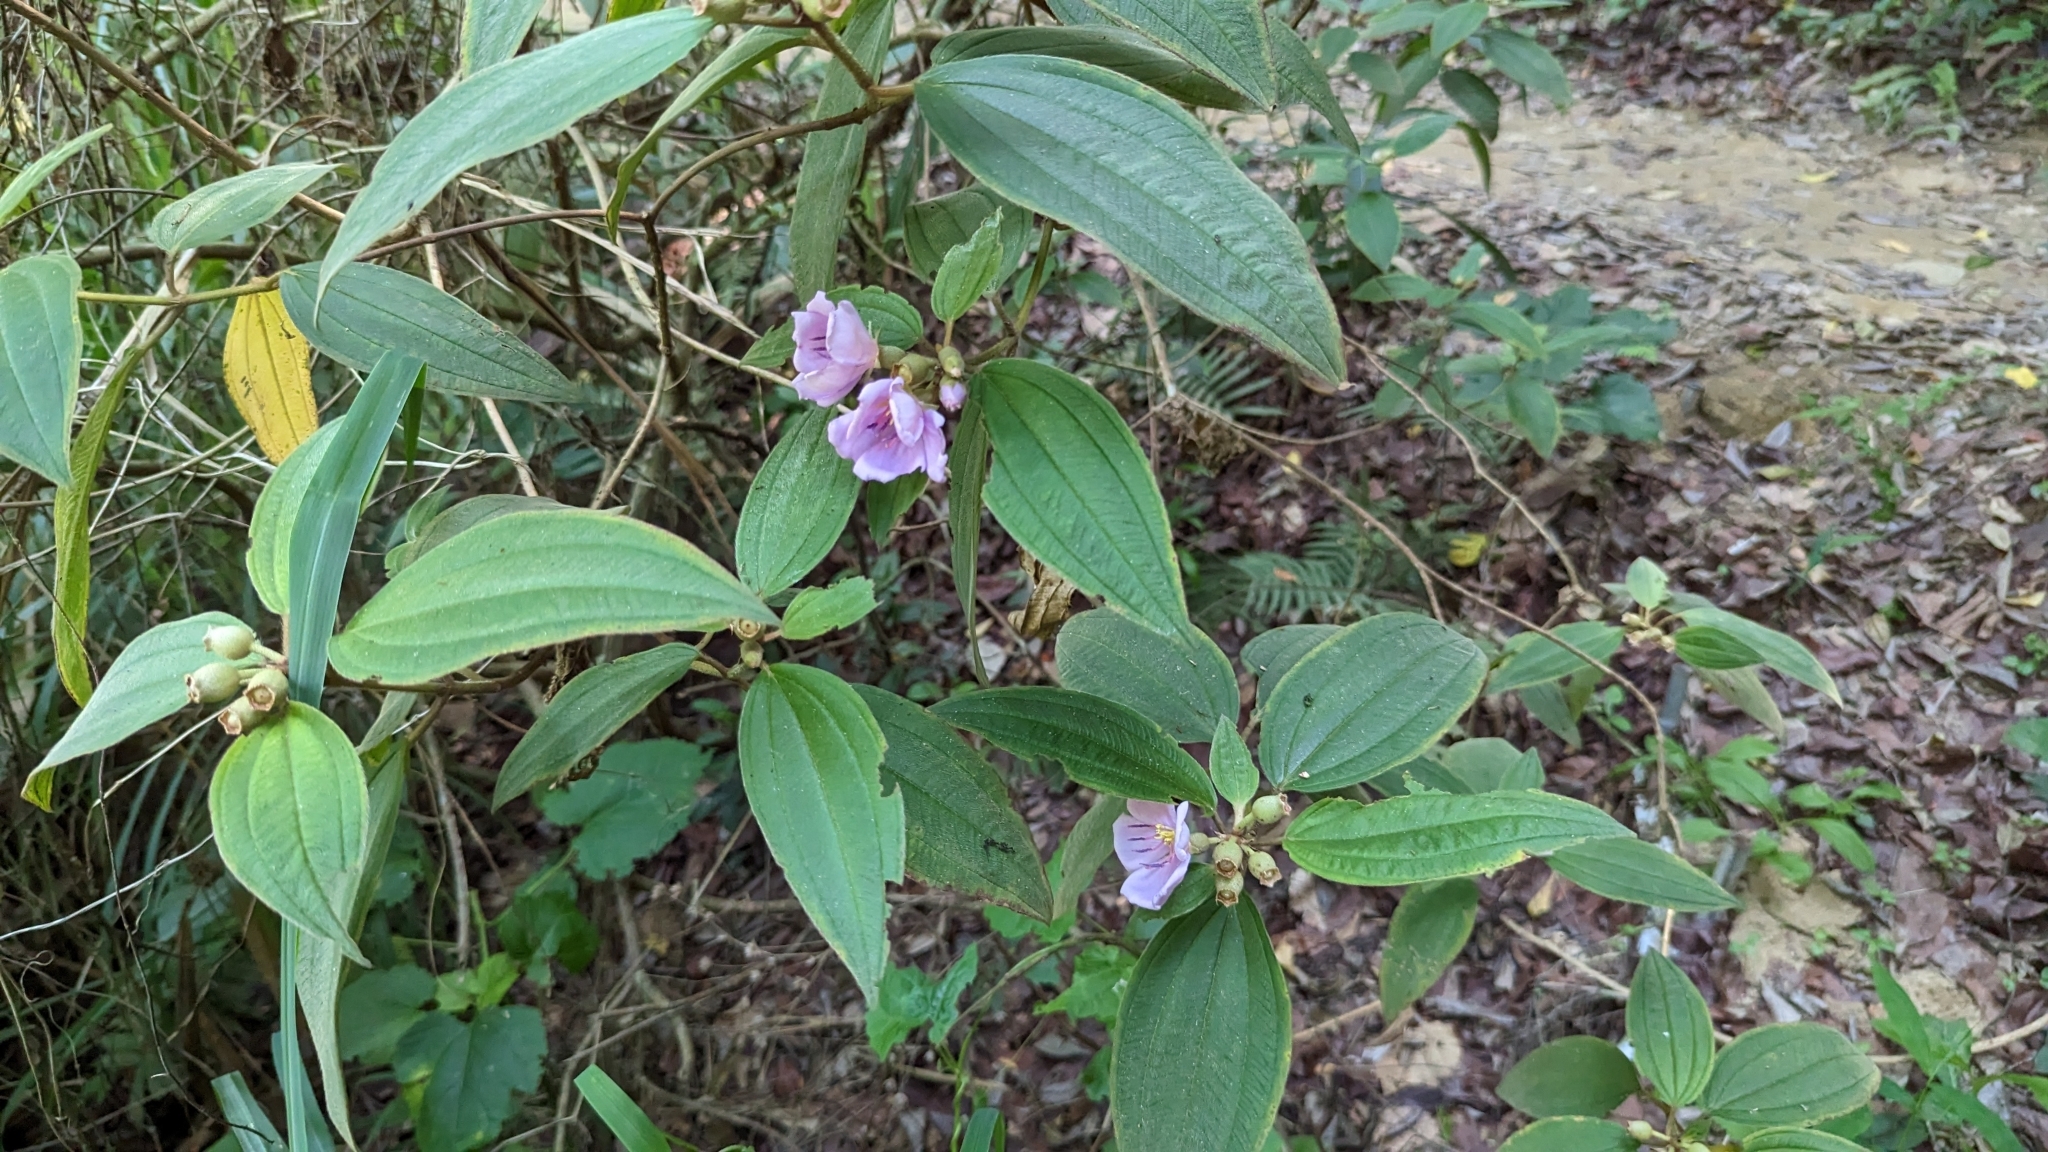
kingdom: Plantae
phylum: Tracheophyta
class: Magnoliopsida
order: Myrtales
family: Melastomataceae
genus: Melastoma
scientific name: Melastoma malabathricum
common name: Indian-rhododendron
